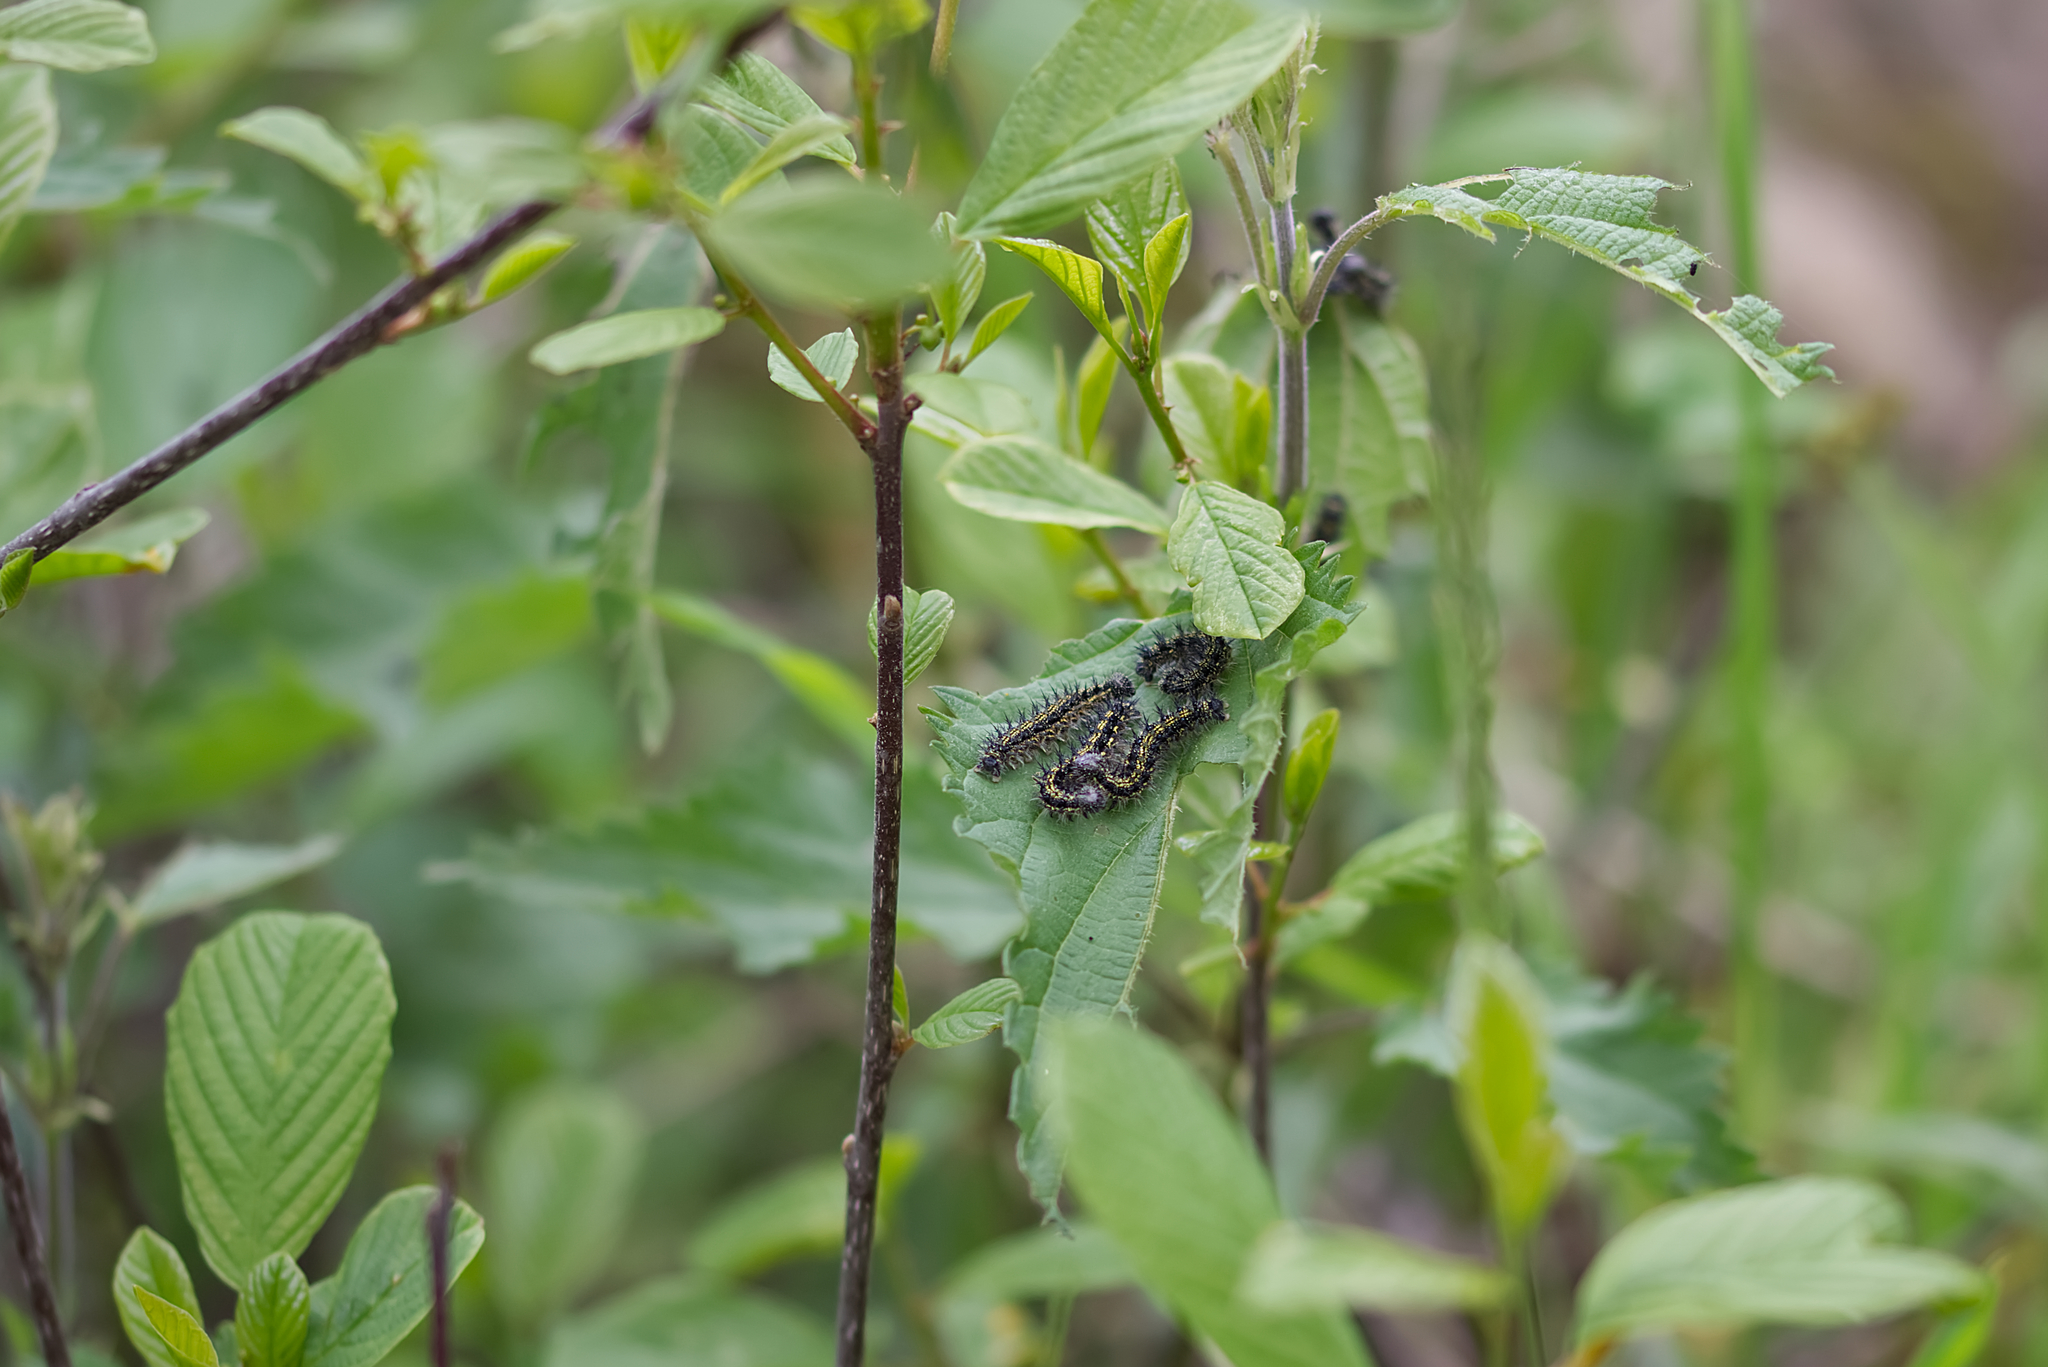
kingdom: Plantae
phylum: Tracheophyta
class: Magnoliopsida
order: Rosales
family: Rhamnaceae
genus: Frangula
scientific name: Frangula alnus
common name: Alder buckthorn
